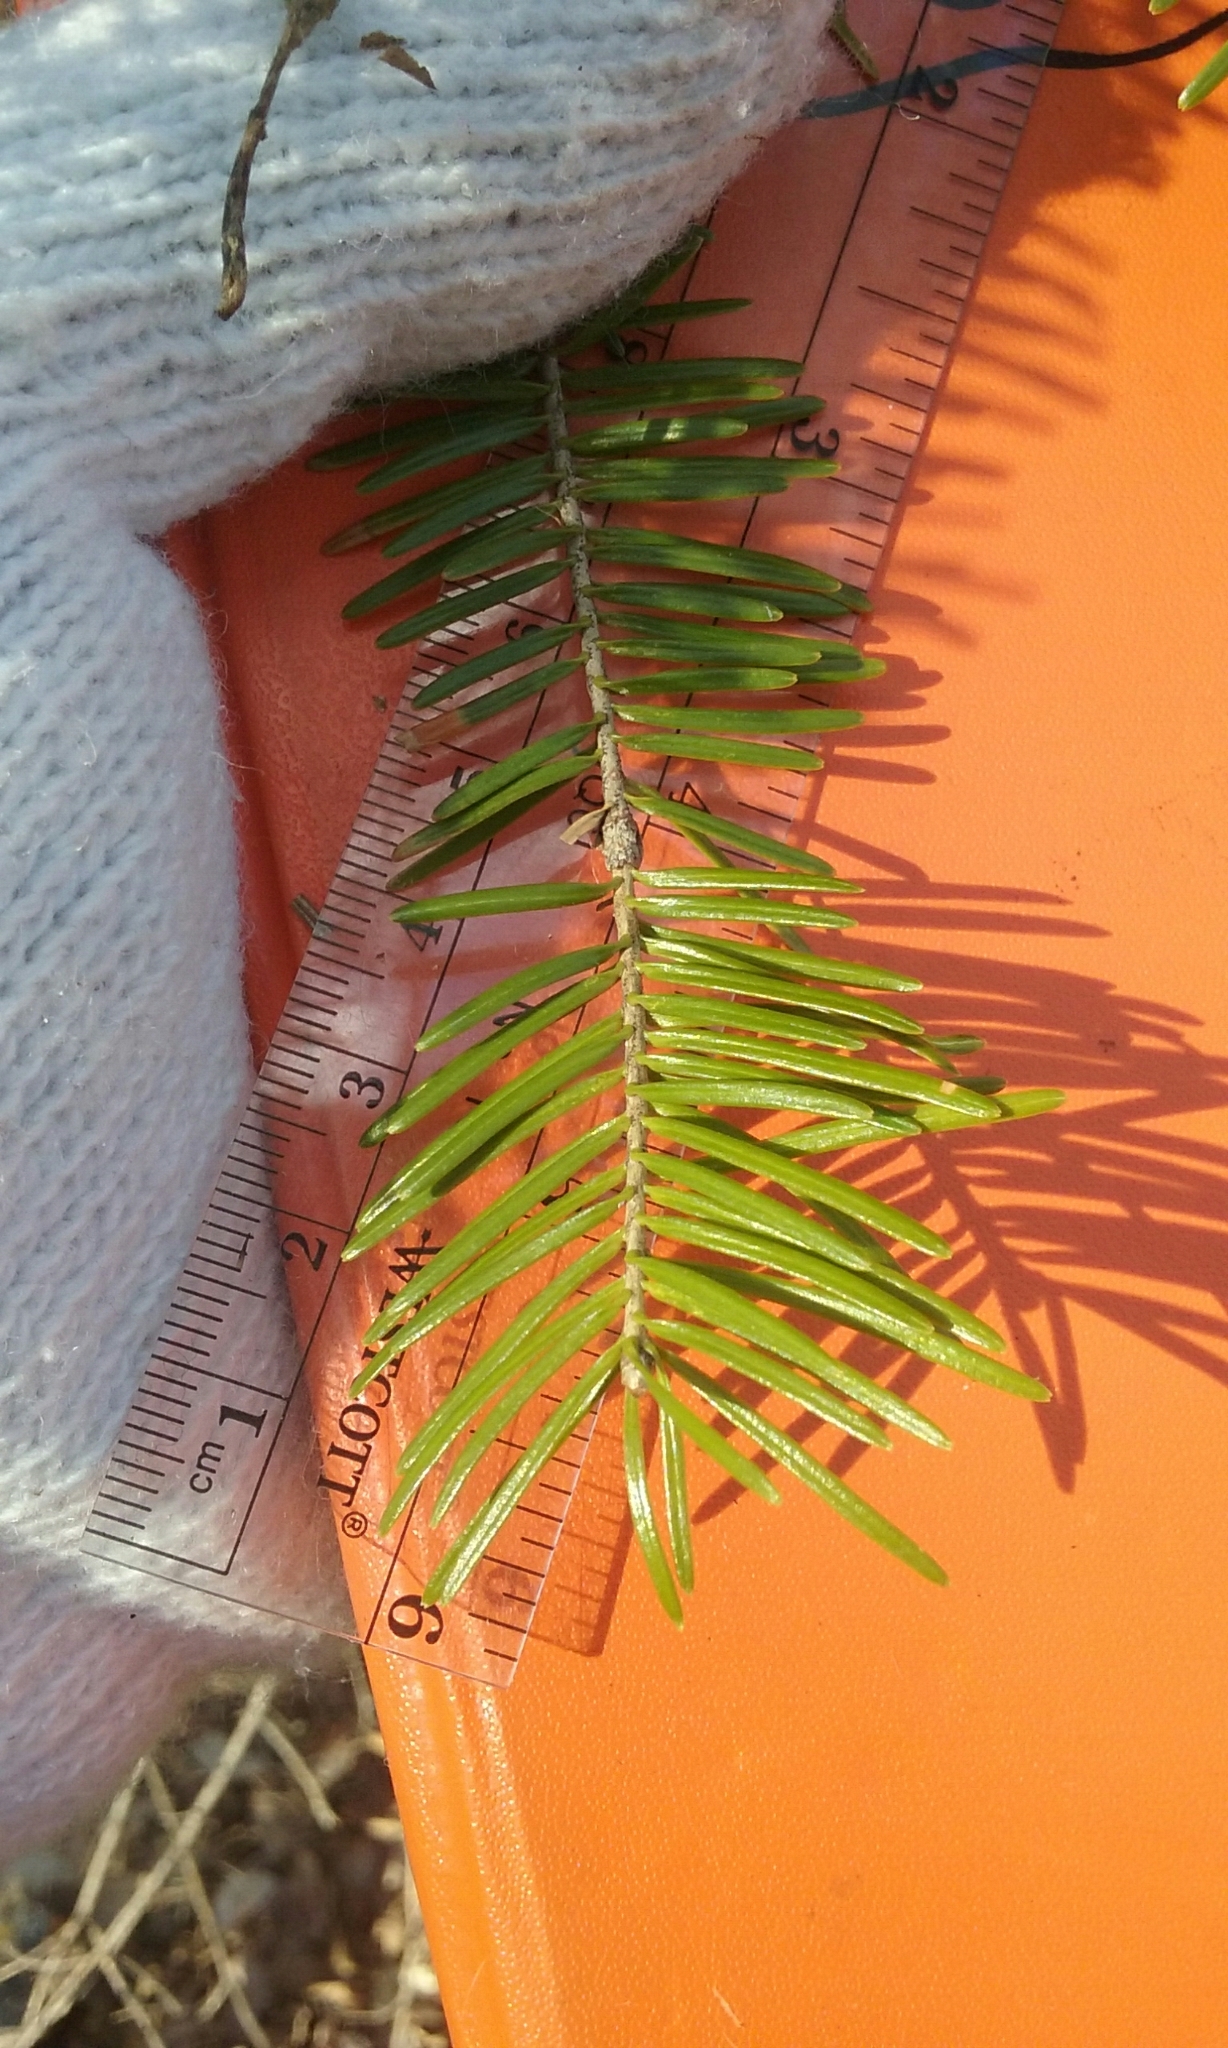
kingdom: Plantae
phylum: Tracheophyta
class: Pinopsida
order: Pinales
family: Pinaceae
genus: Abies
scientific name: Abies balsamea
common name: Balsam fir
